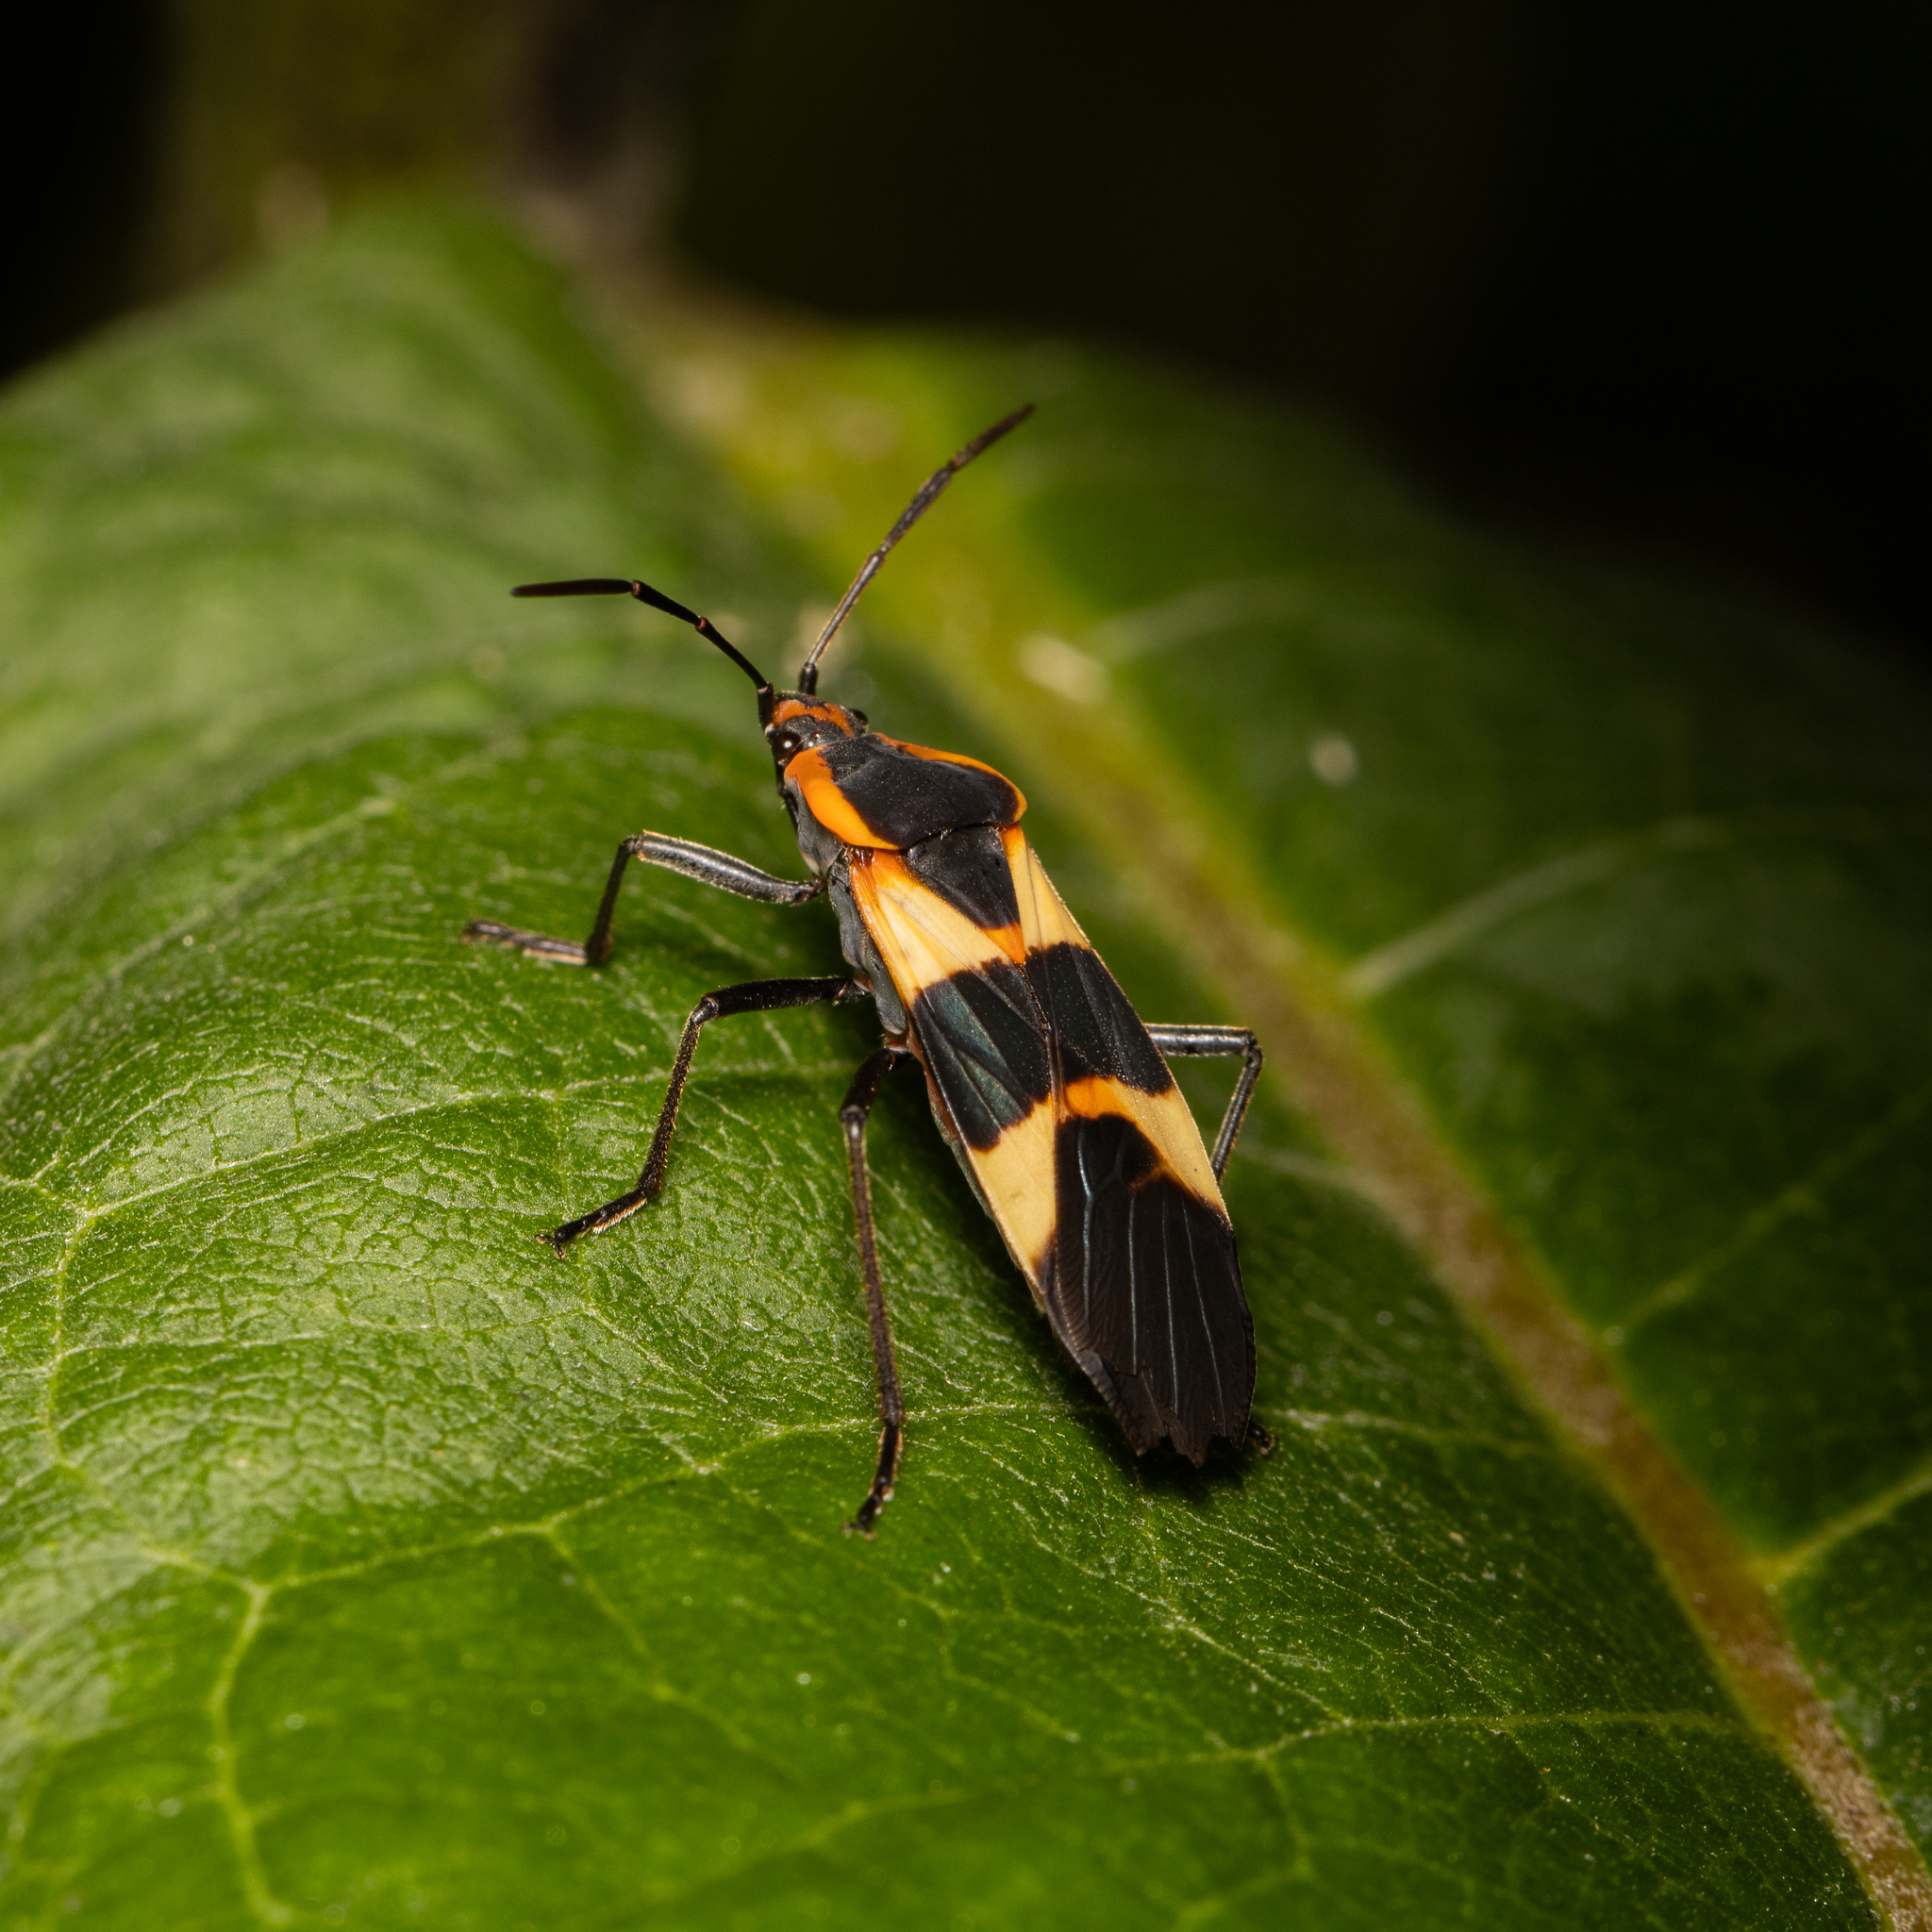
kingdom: Animalia
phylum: Arthropoda
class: Insecta
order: Hemiptera
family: Lygaeidae
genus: Oncopeltus
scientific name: Oncopeltus fasciatus
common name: Large milkweed bug
